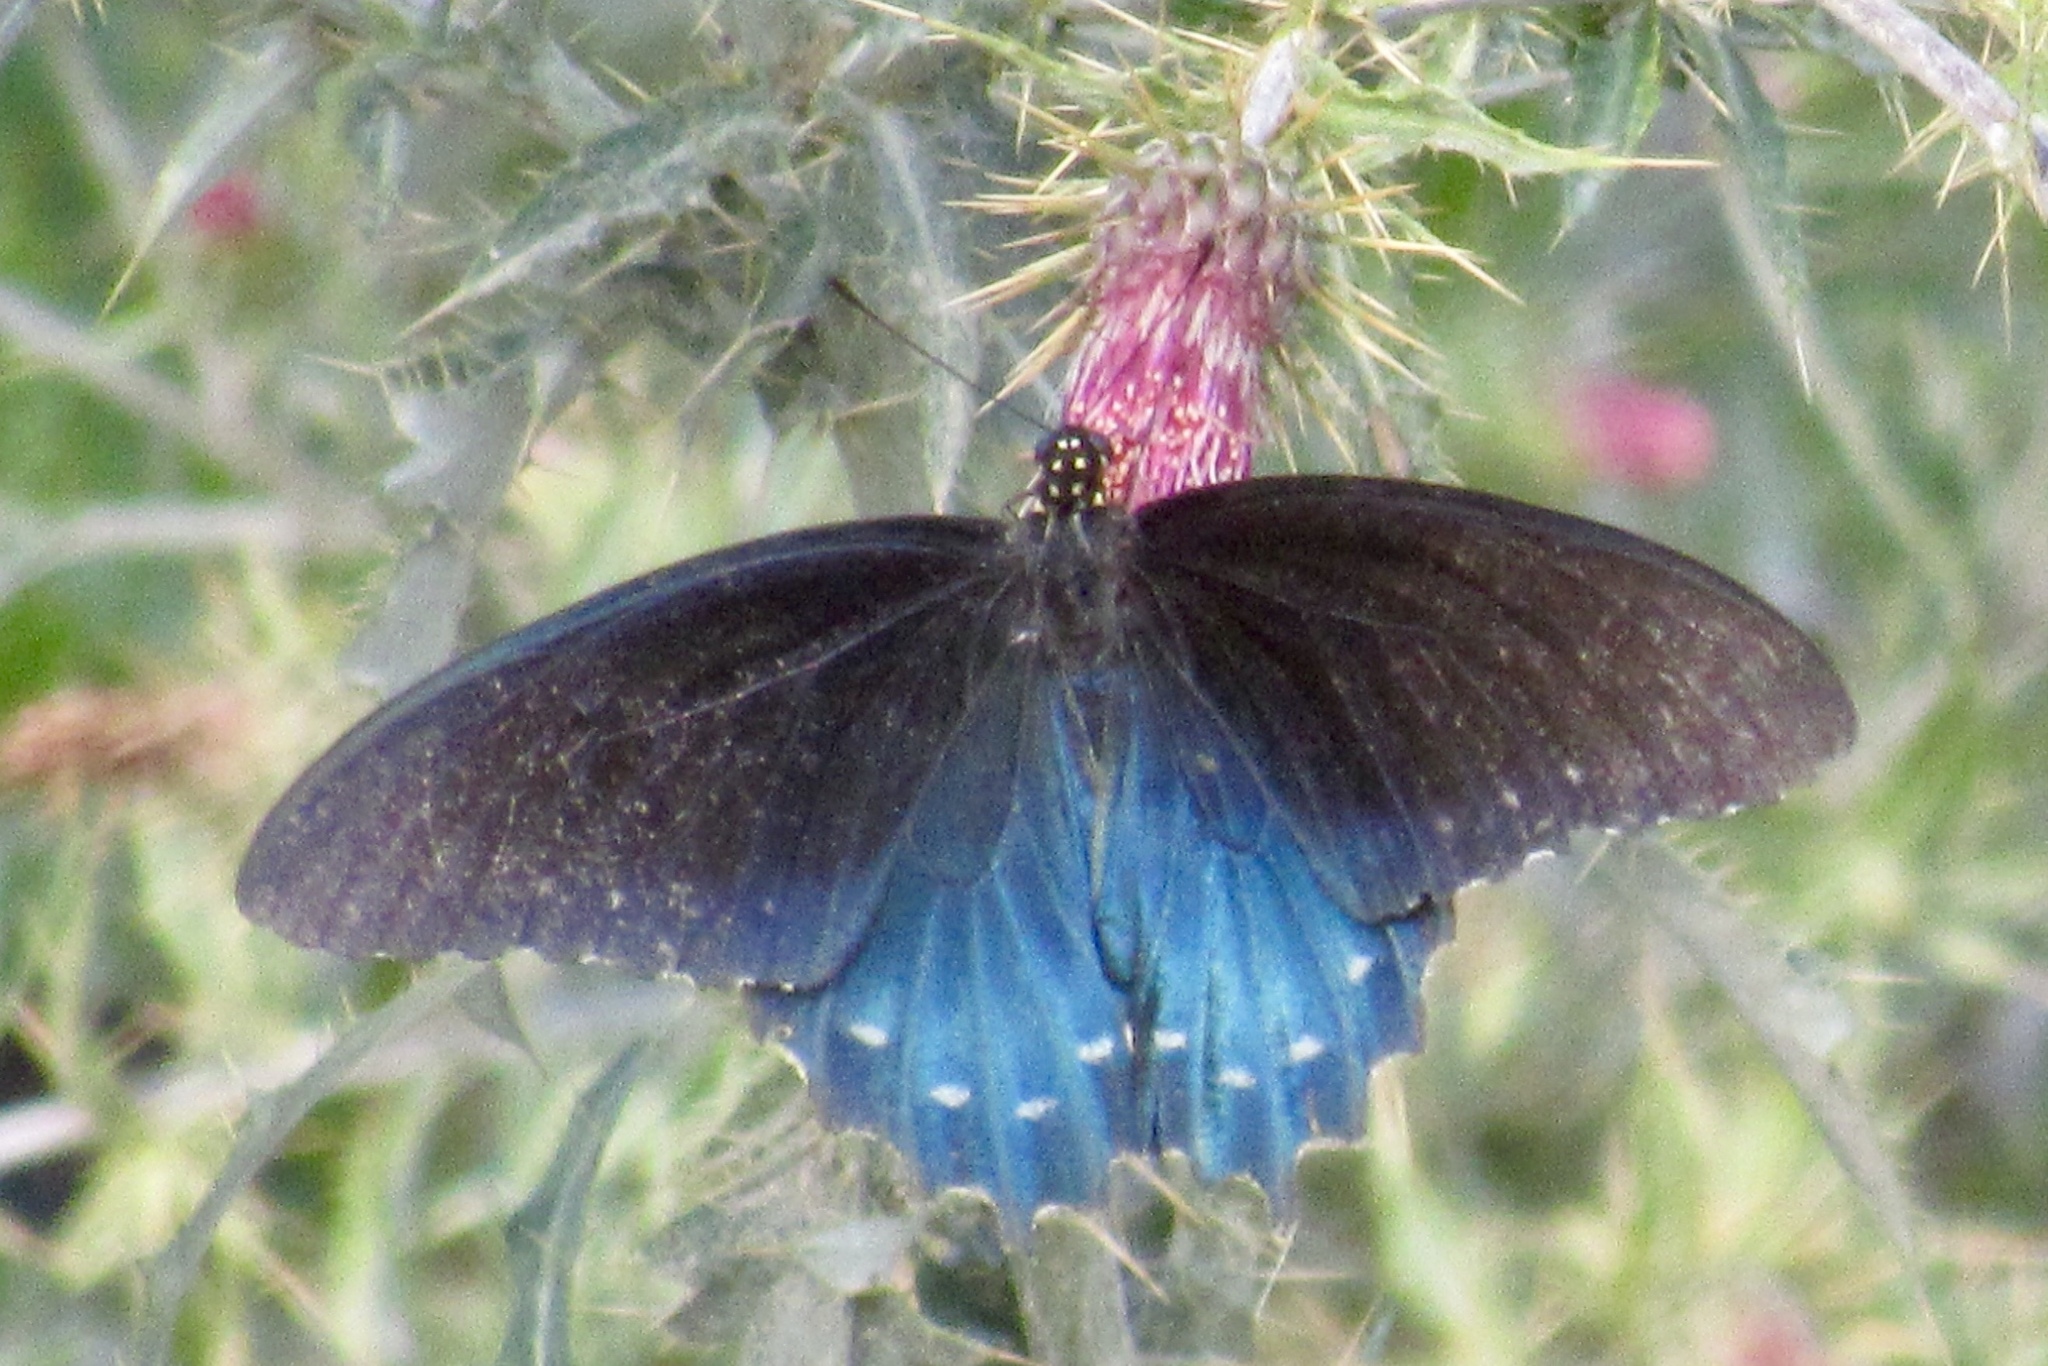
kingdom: Animalia
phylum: Arthropoda
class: Insecta
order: Lepidoptera
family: Papilionidae
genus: Battus
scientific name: Battus philenor
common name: Pipevine swallowtail
